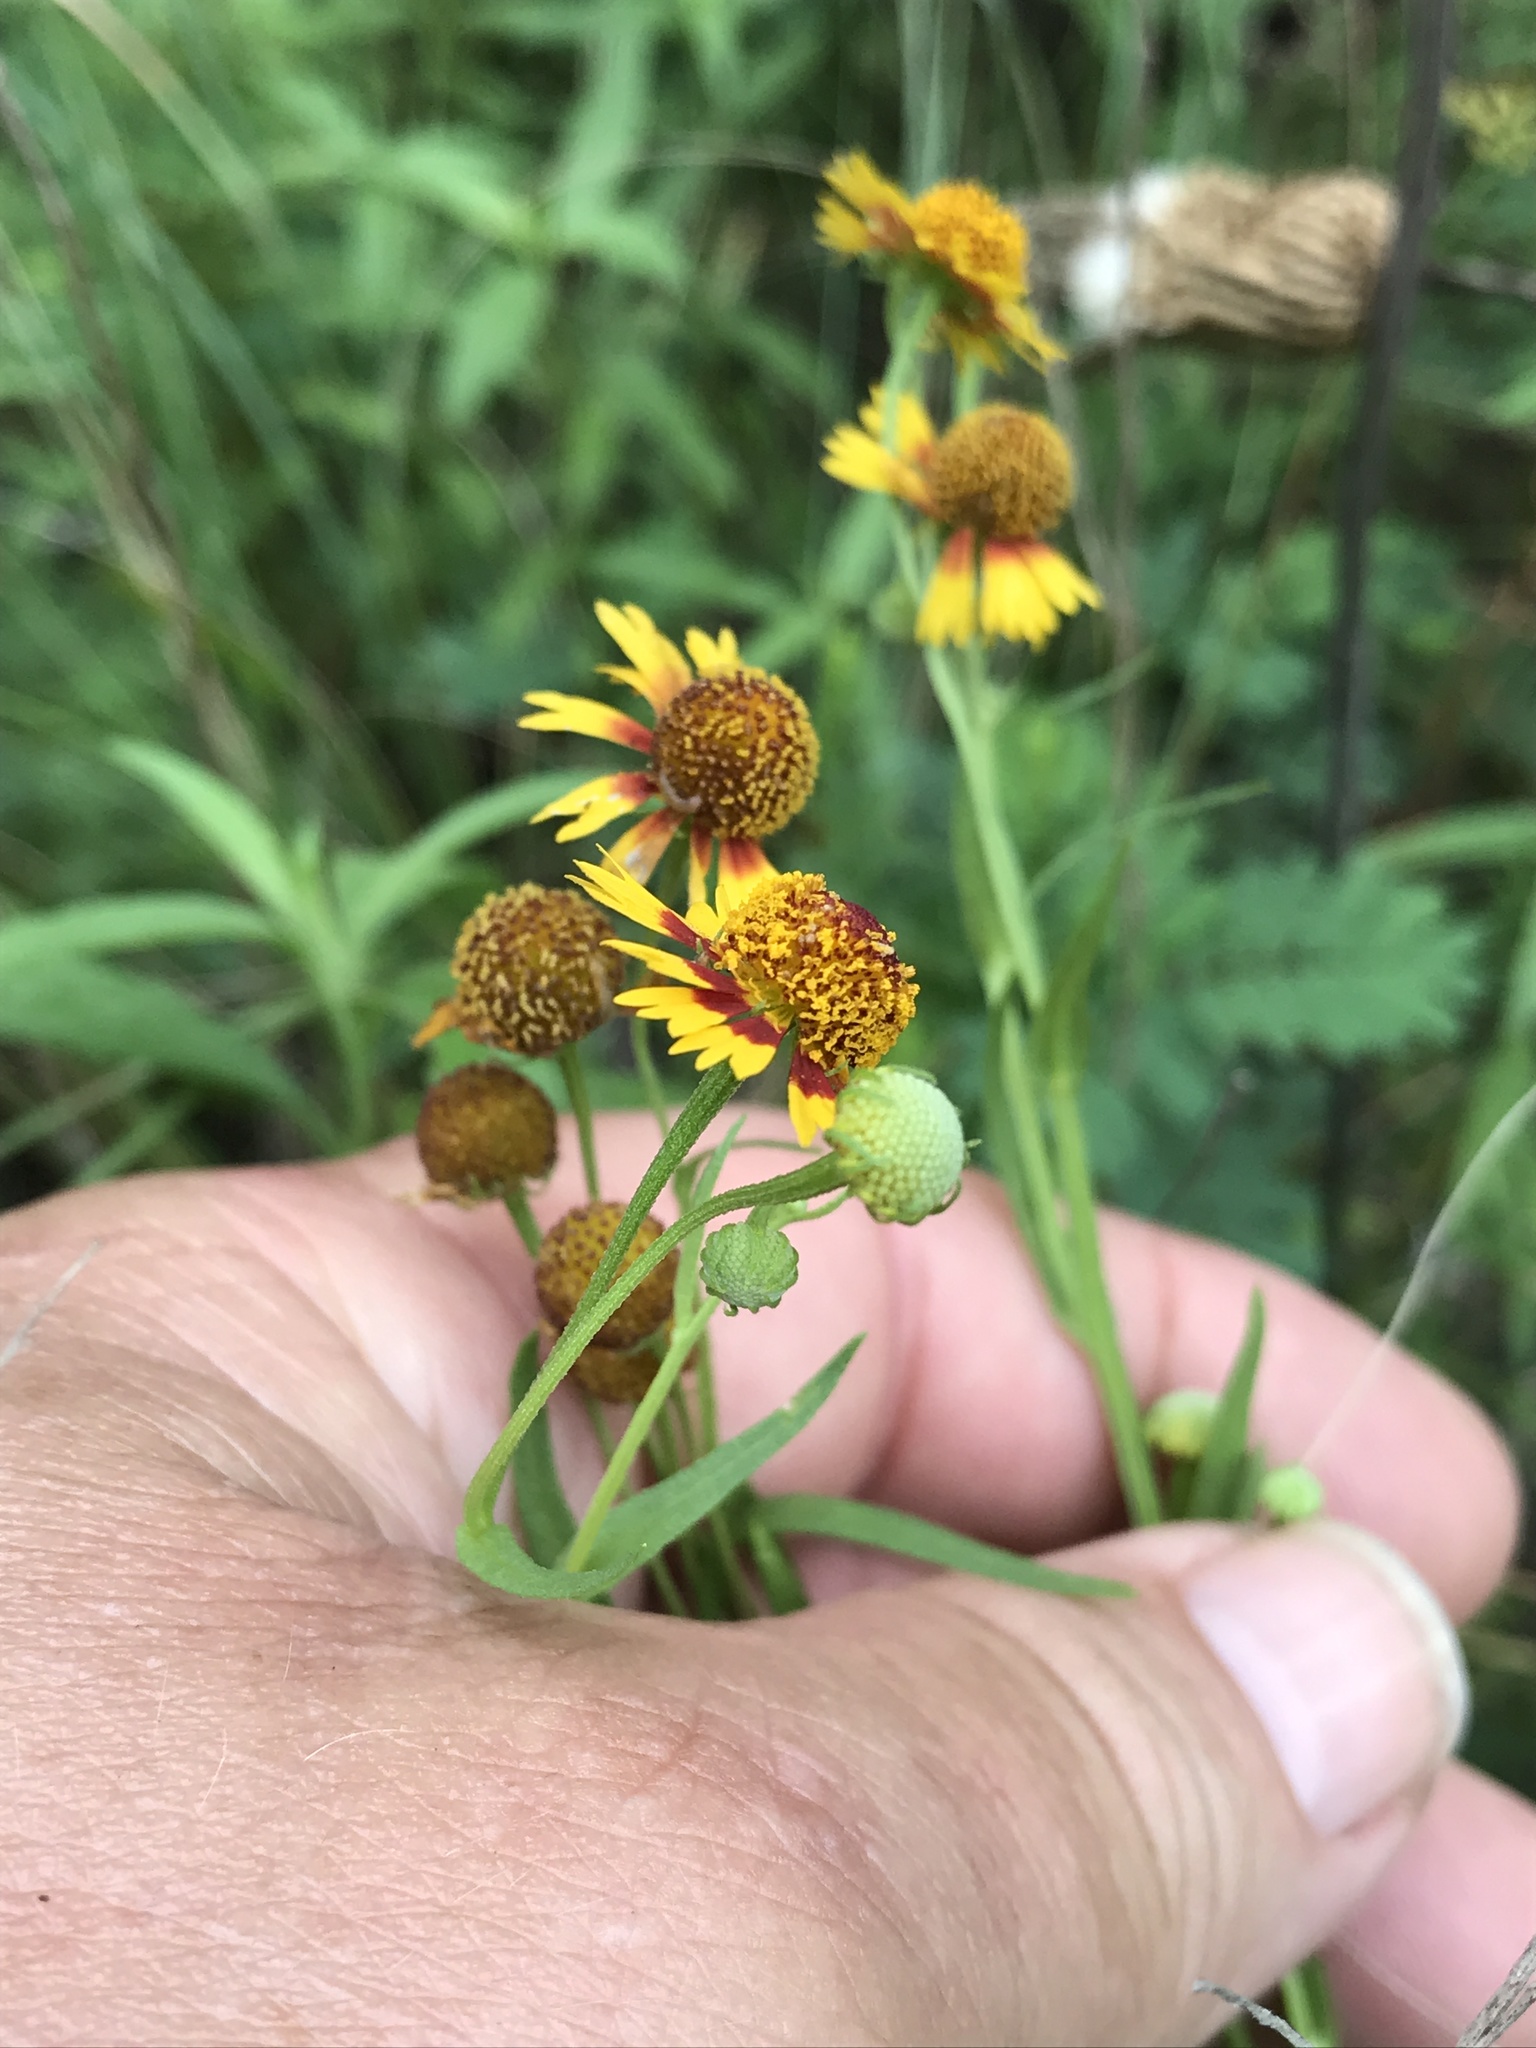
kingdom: Plantae
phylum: Tracheophyta
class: Magnoliopsida
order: Asterales
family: Asteraceae
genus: Helenium
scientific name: Helenium elegans
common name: Pretty sneezeweed
